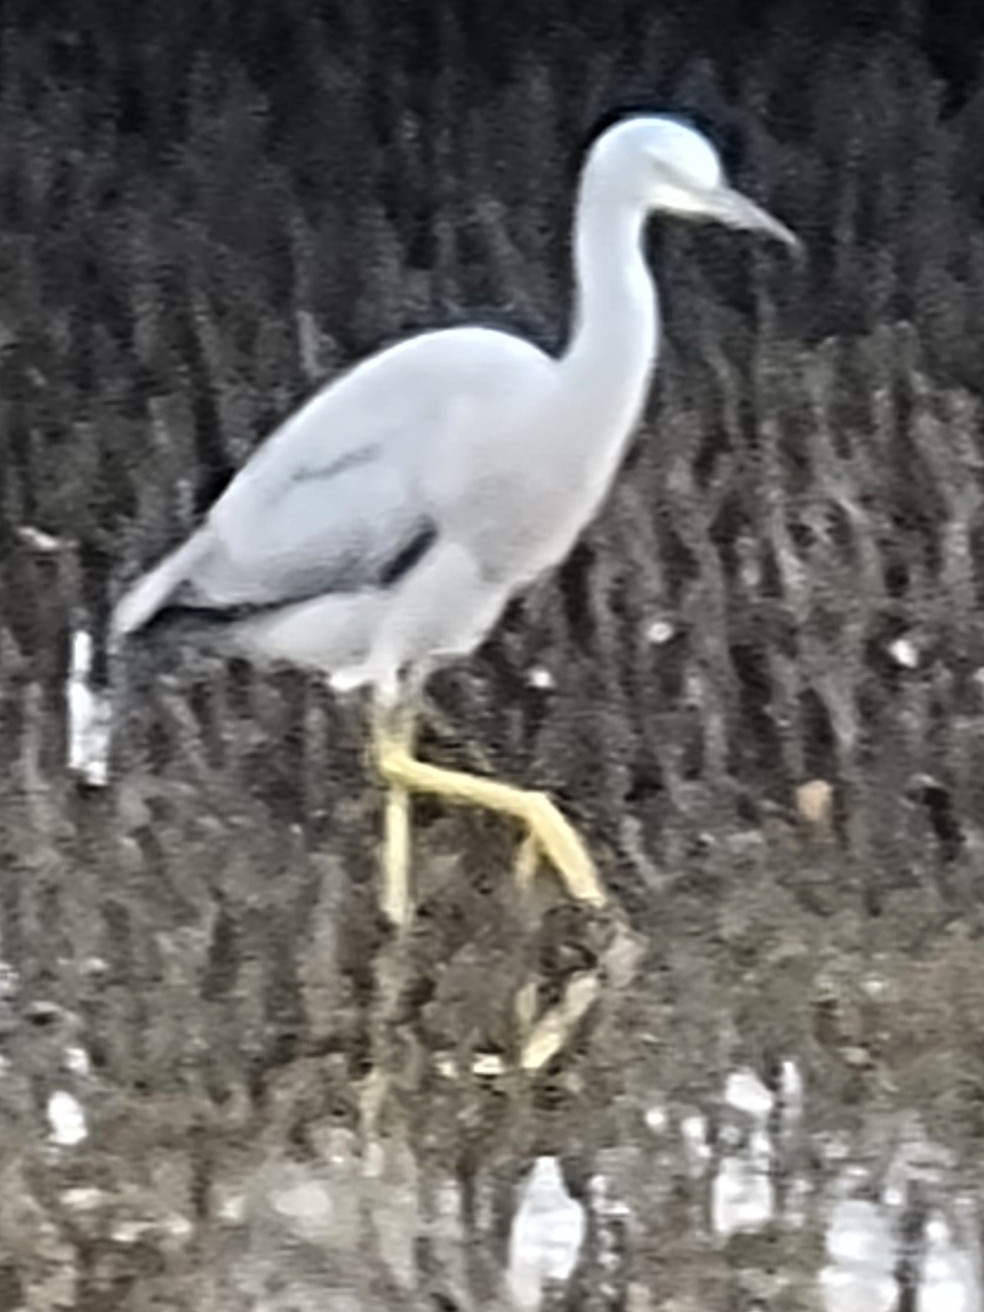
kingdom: Animalia
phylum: Chordata
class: Aves
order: Pelecaniformes
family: Ardeidae
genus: Egretta
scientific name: Egretta novaehollandiae
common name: White-faced heron
